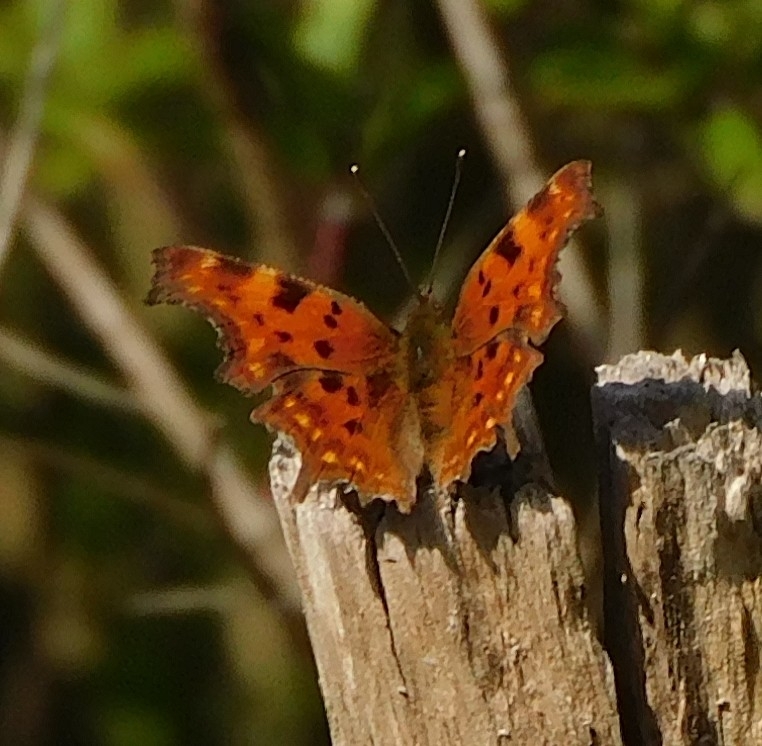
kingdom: Animalia
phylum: Arthropoda
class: Insecta
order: Lepidoptera
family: Nymphalidae
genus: Polygonia
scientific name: Polygonia c-album
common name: Comma
